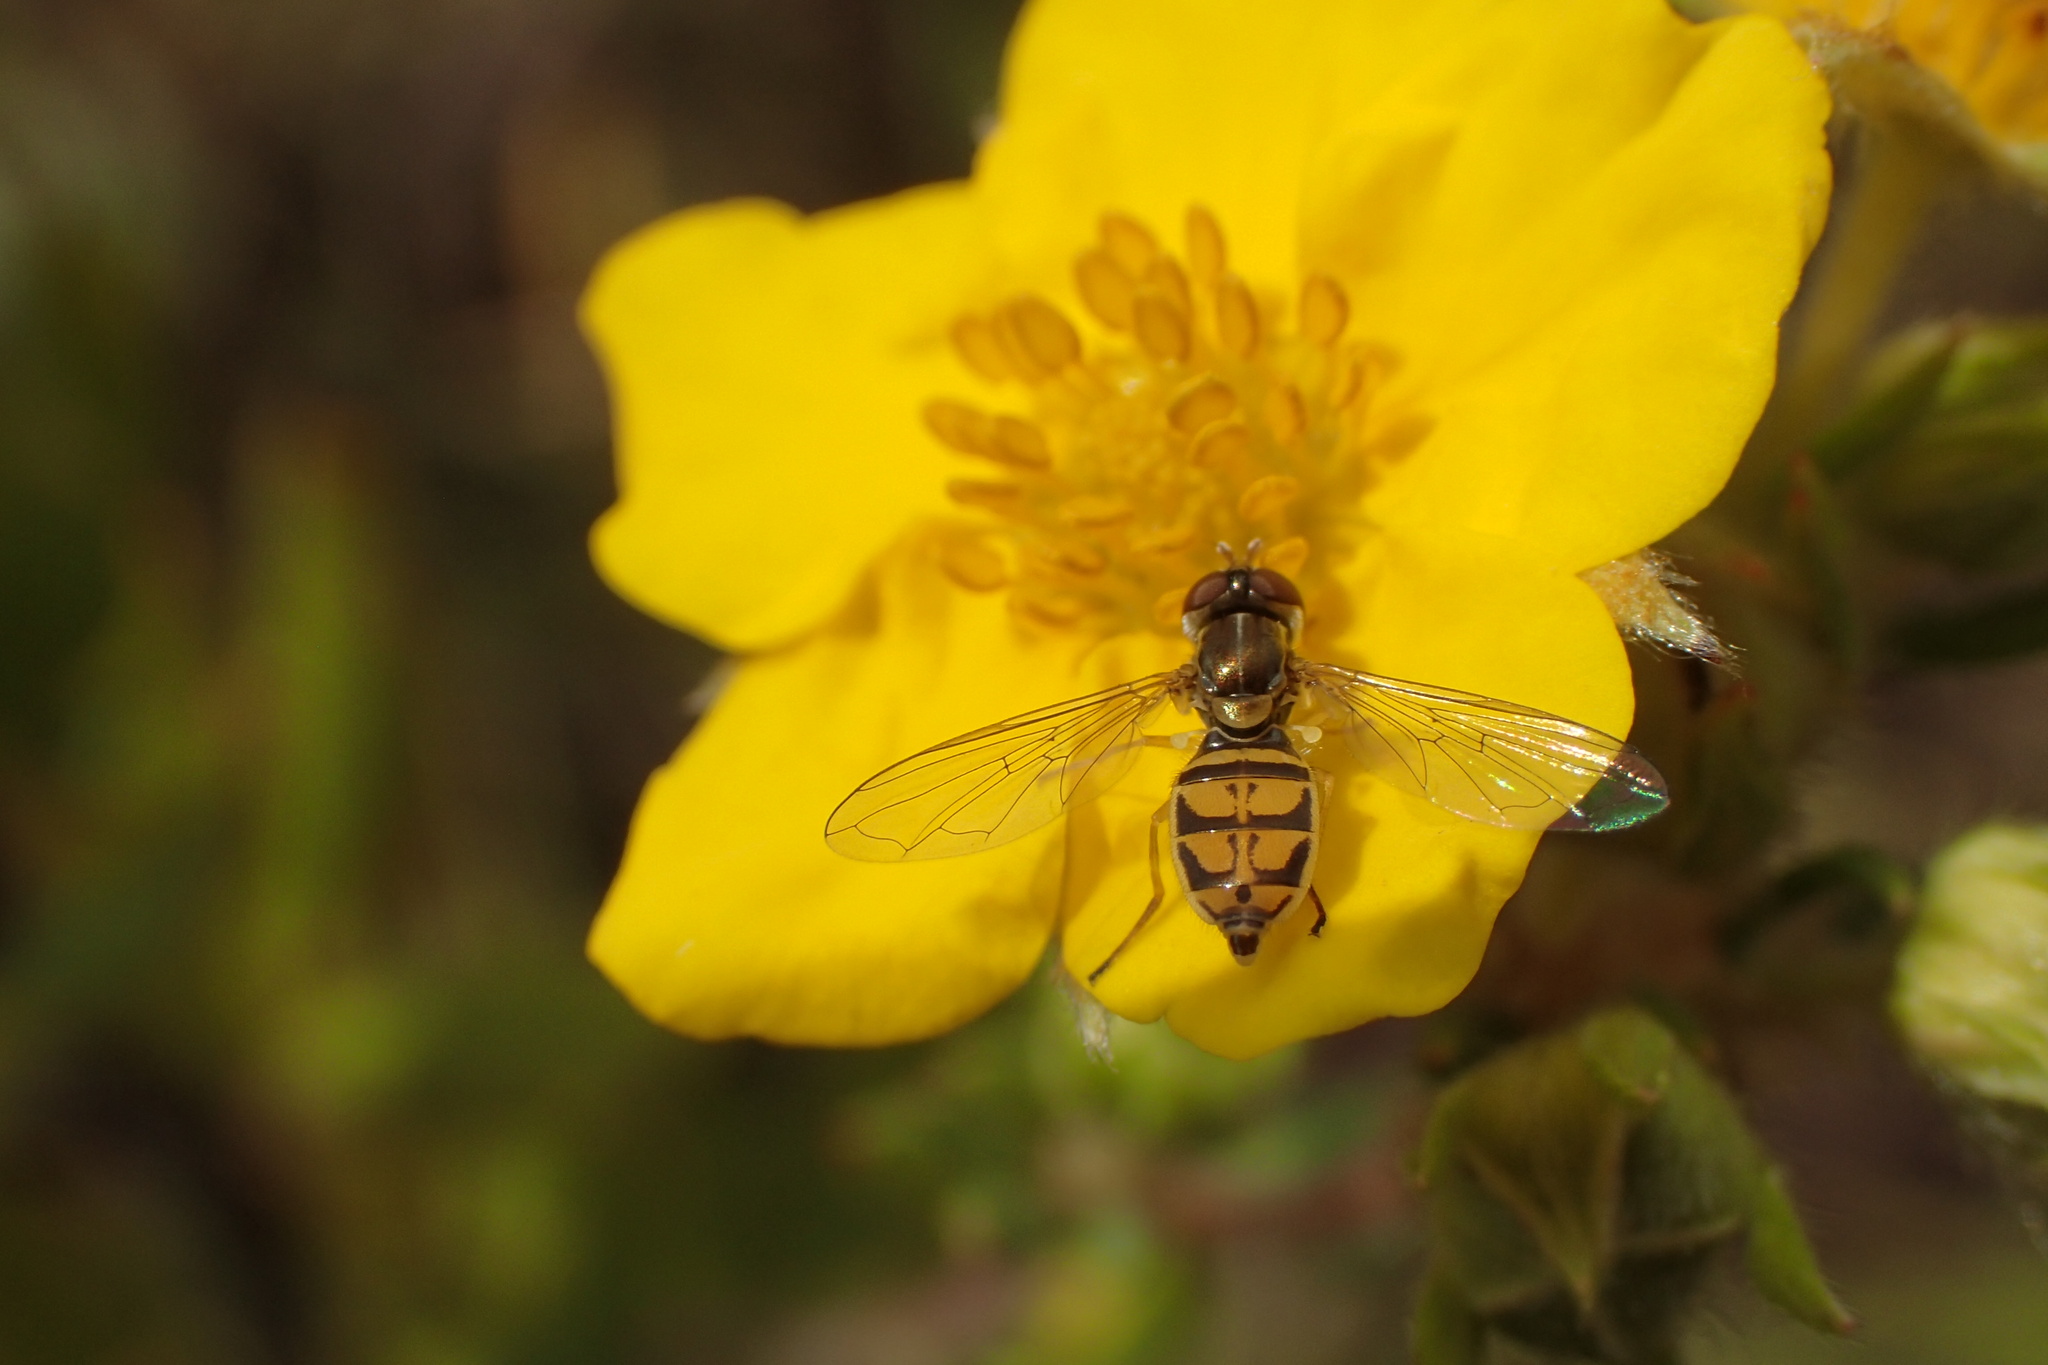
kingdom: Animalia
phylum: Arthropoda
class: Insecta
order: Diptera
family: Syrphidae
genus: Toxomerus
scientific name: Toxomerus marginatus
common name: Syrphid fly
